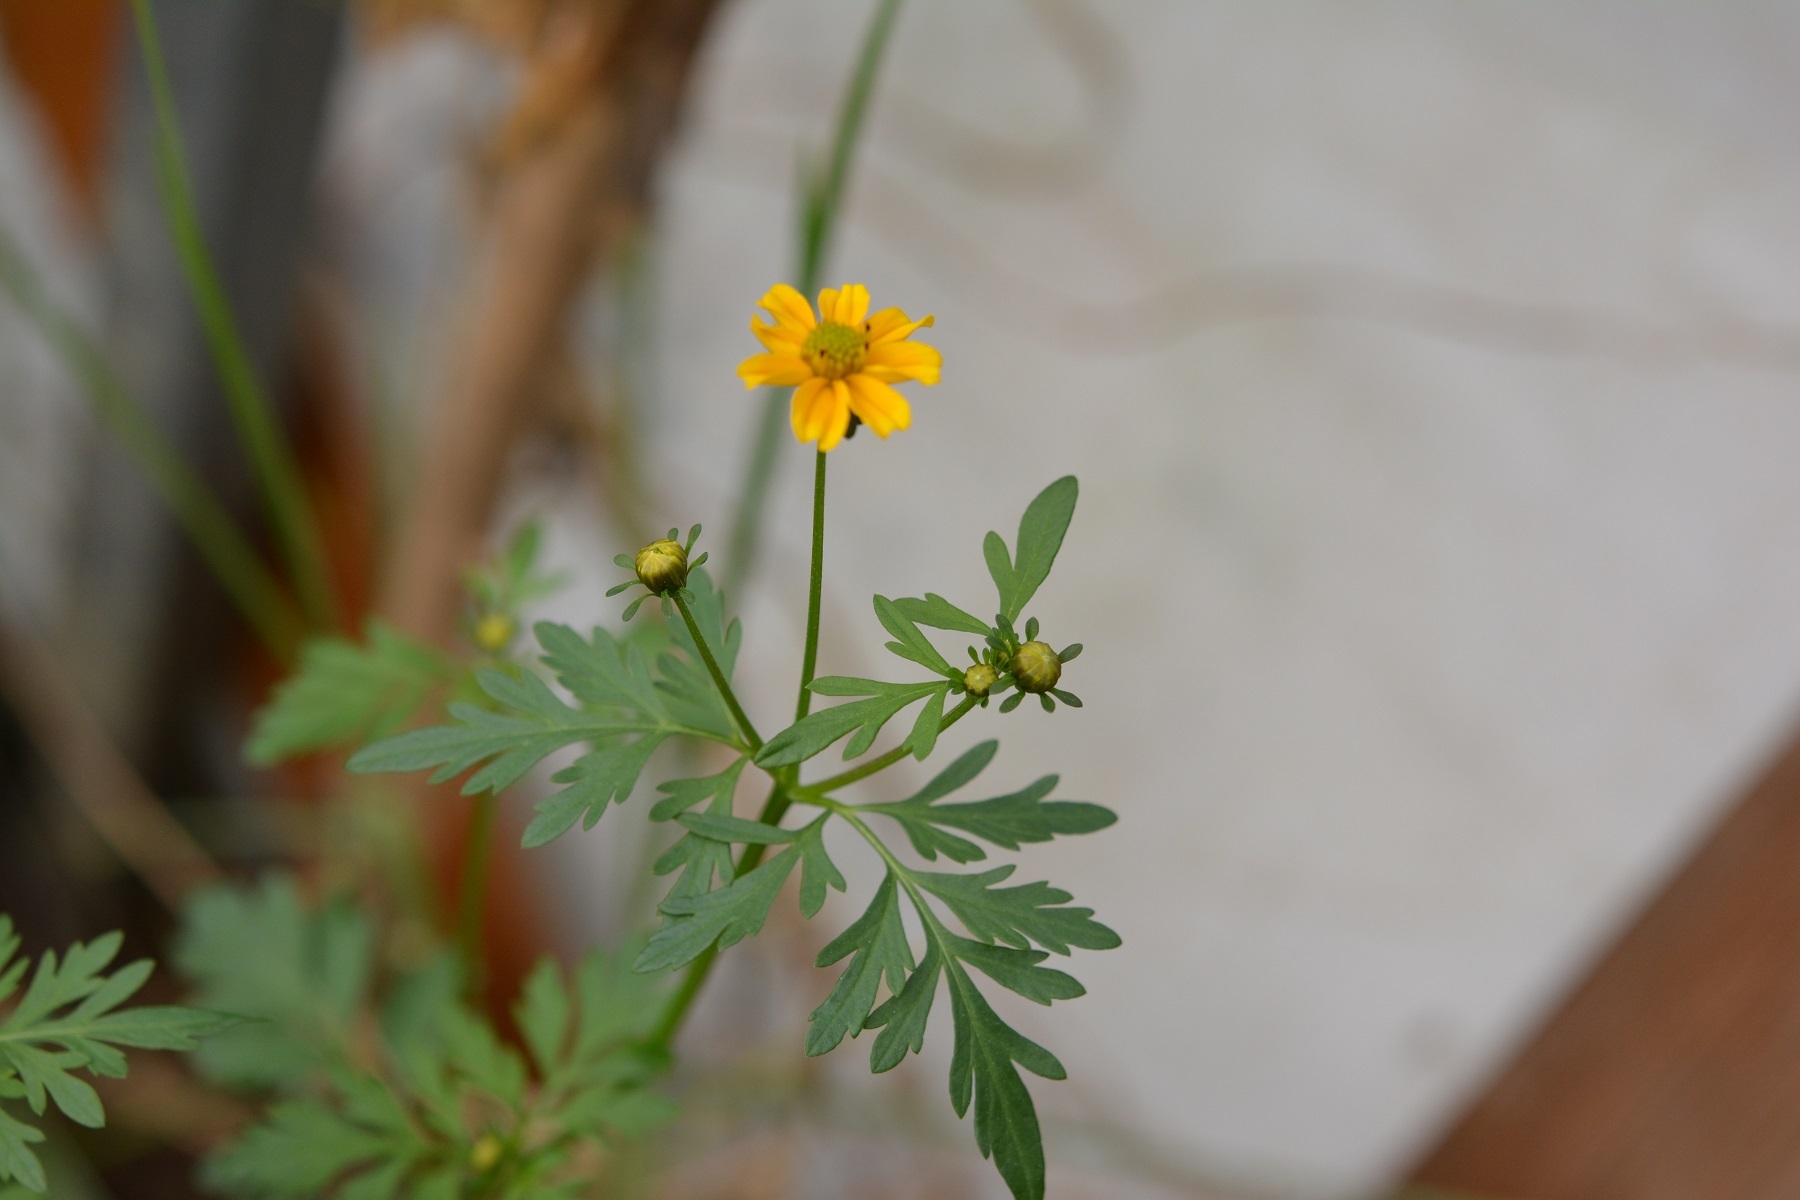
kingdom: Plantae
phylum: Tracheophyta
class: Magnoliopsida
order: Asterales
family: Asteraceae
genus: Bidens
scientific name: Bidens ballsii
